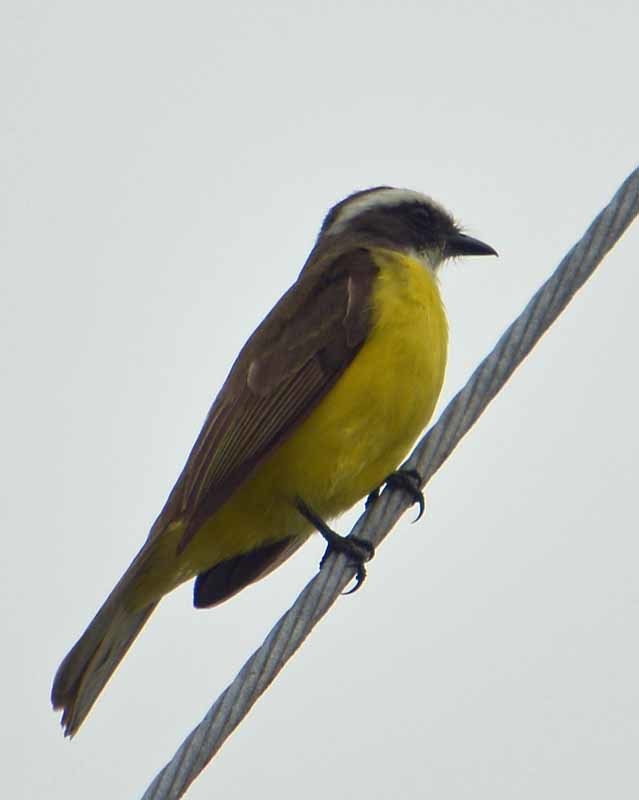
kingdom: Animalia
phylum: Chordata
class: Aves
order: Passeriformes
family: Tyrannidae
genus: Myiozetetes
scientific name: Myiozetetes similis
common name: Social flycatcher
